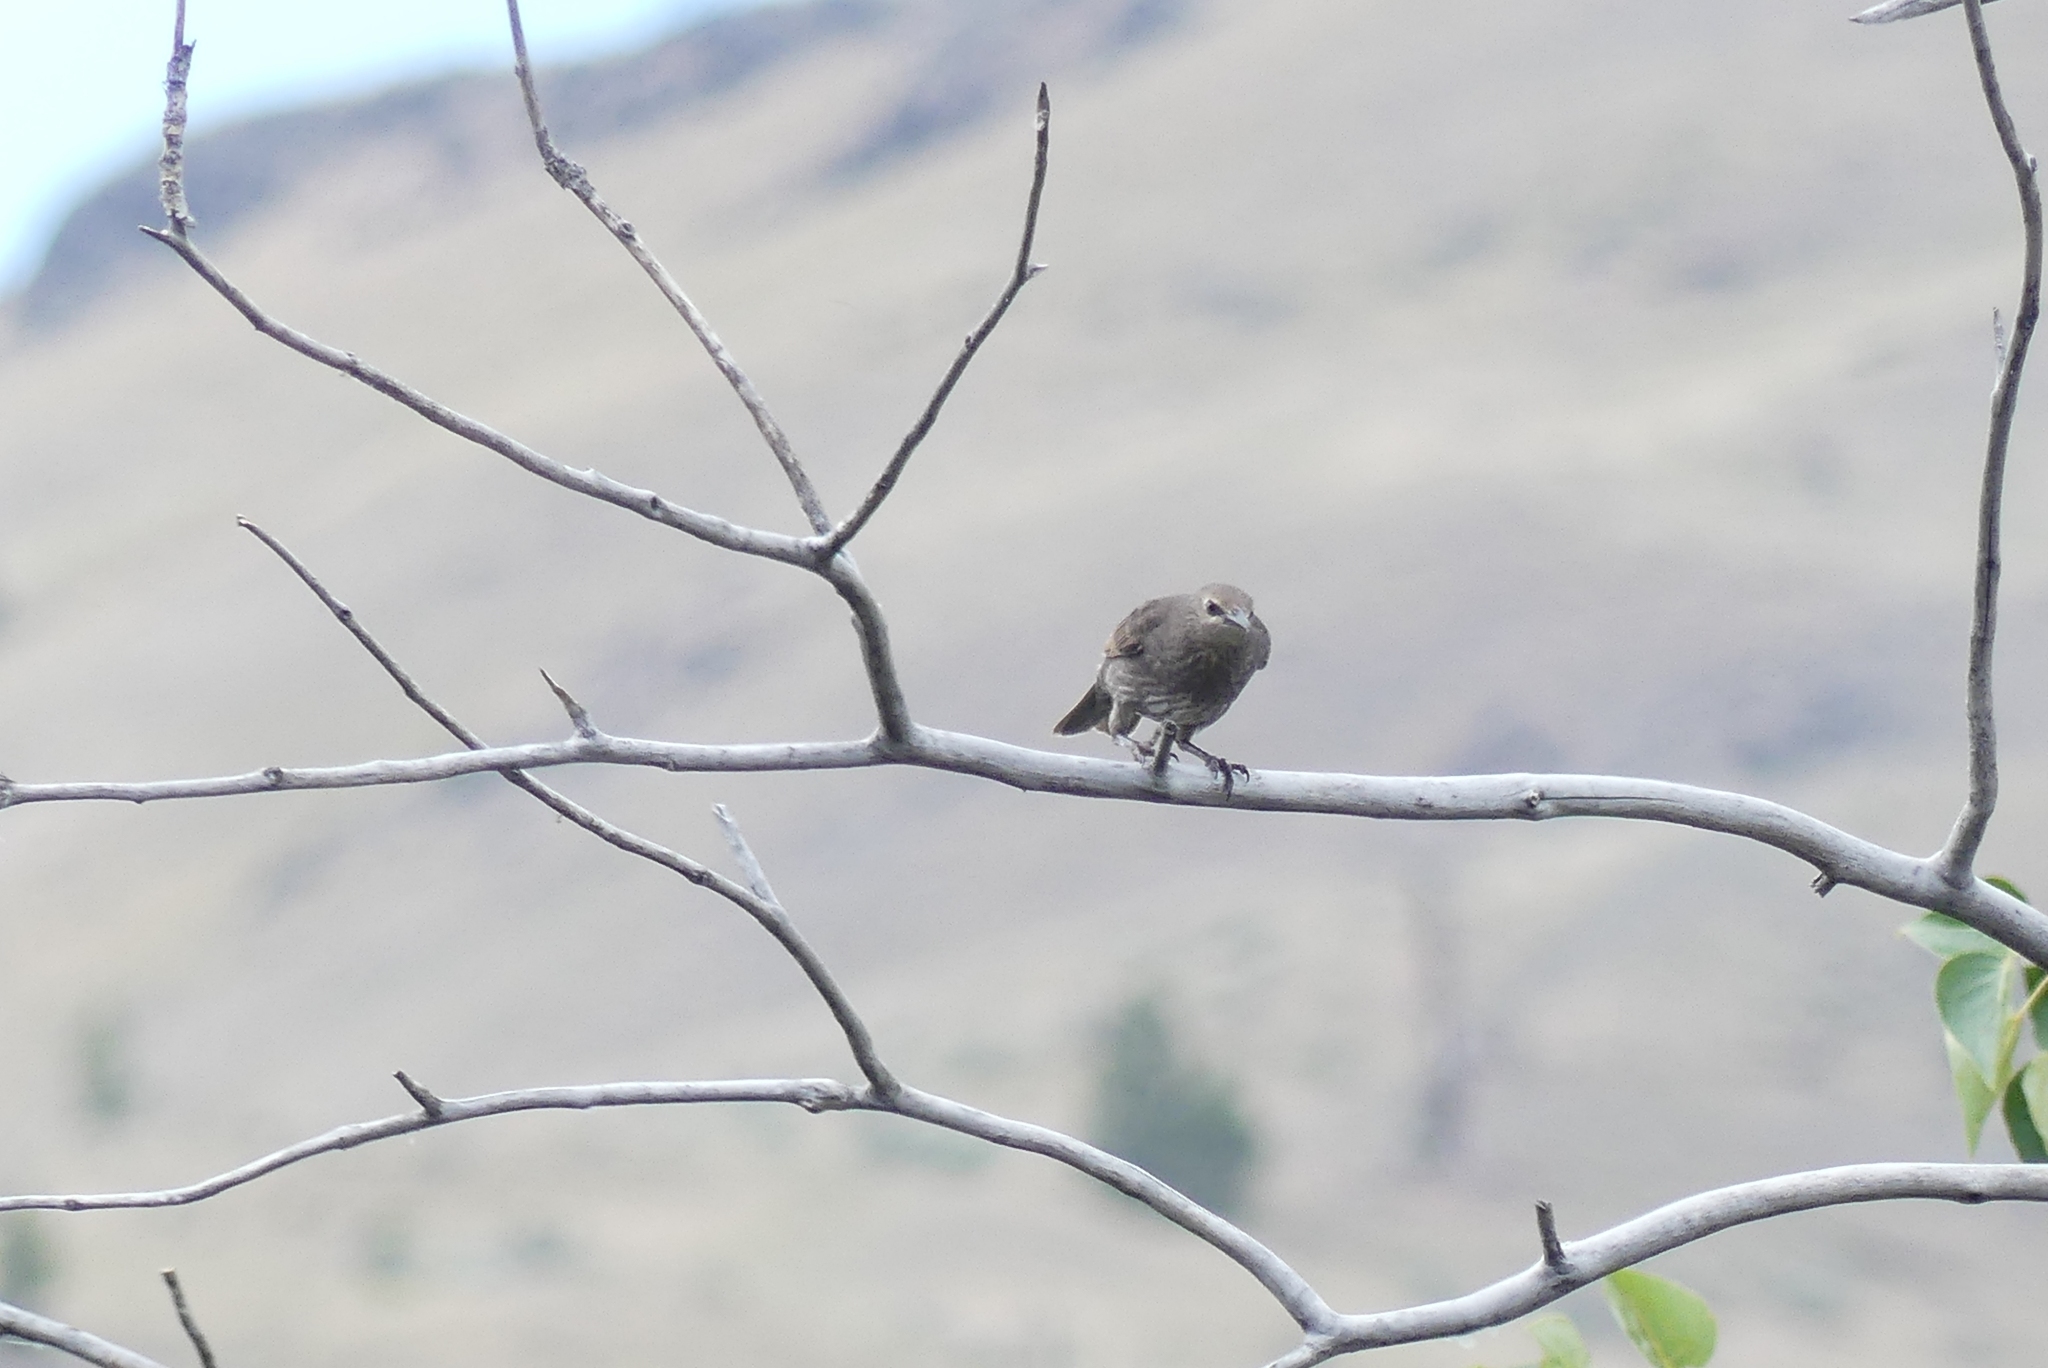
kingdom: Animalia
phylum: Chordata
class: Aves
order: Passeriformes
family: Sturnidae
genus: Sturnus
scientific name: Sturnus vulgaris
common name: Common starling
